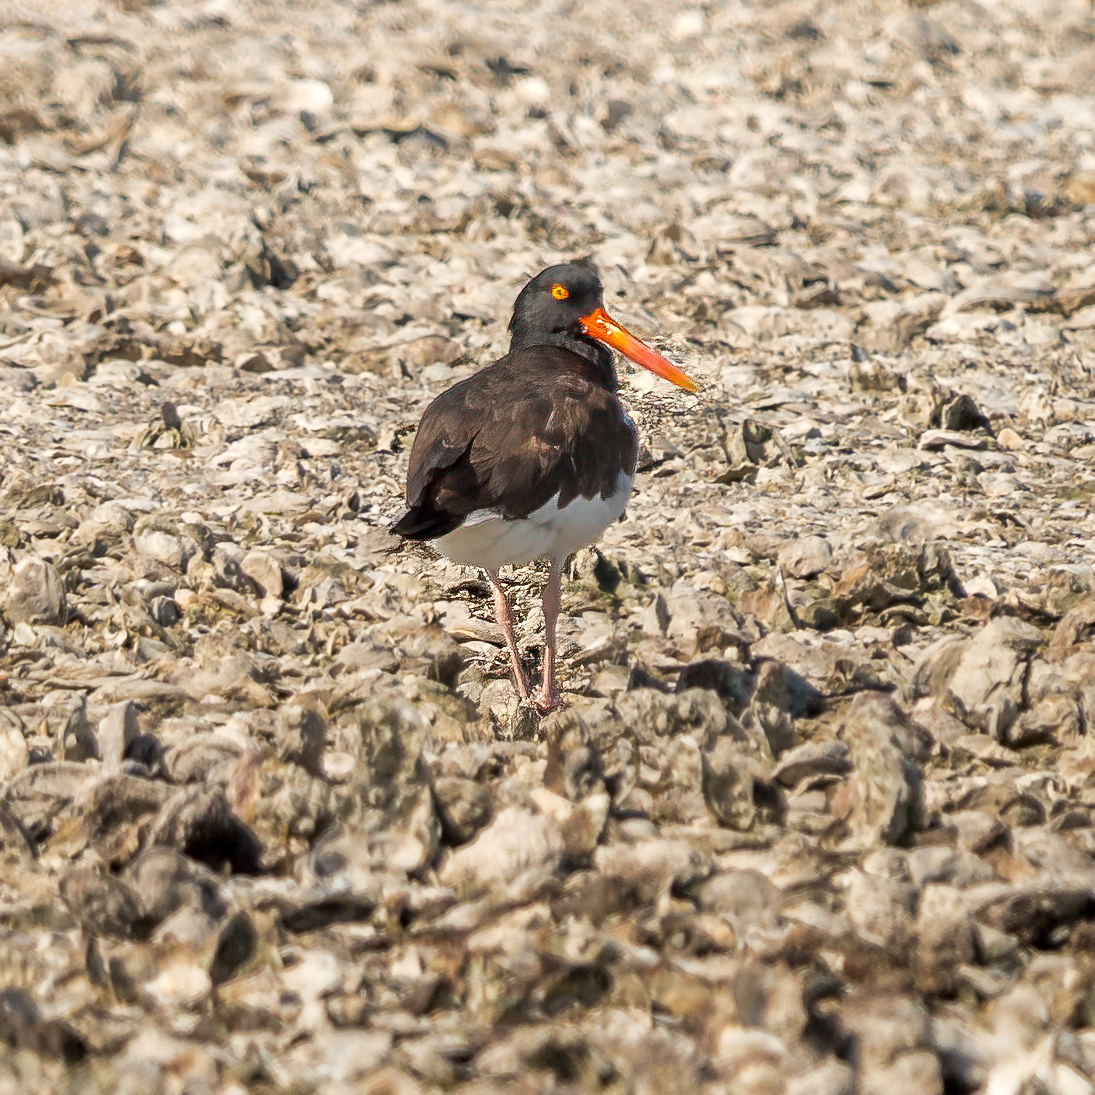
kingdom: Animalia
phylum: Chordata
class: Aves
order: Charadriiformes
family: Haematopodidae
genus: Haematopus
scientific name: Haematopus palliatus
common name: American oystercatcher
